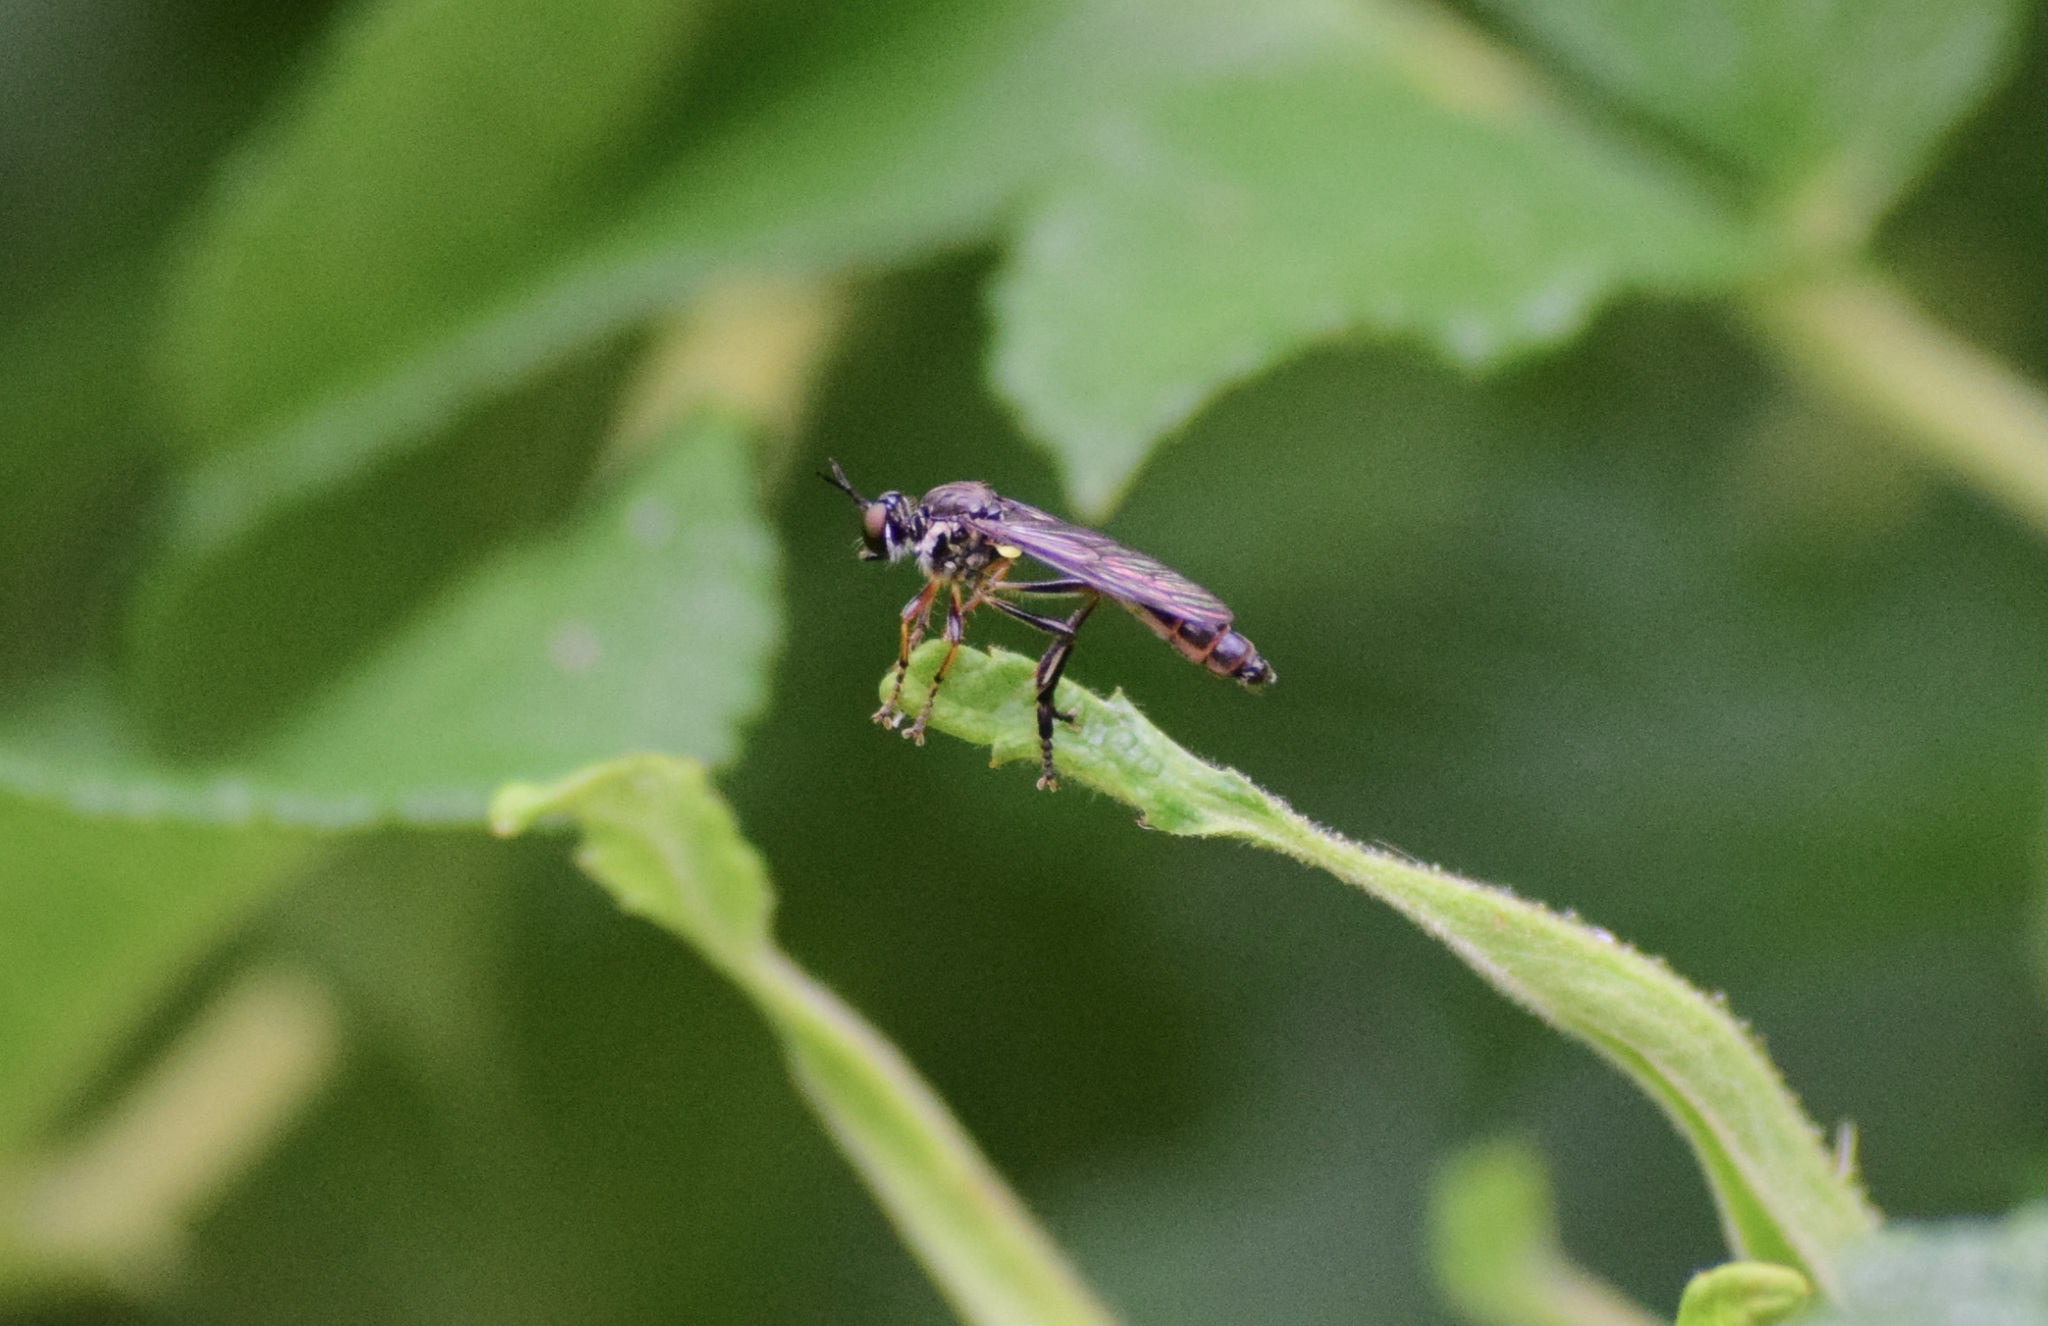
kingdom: Animalia
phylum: Arthropoda
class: Insecta
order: Diptera
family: Asilidae
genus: Dioctria
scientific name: Dioctria hyalipennis
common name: Stripe-legged robberfly
